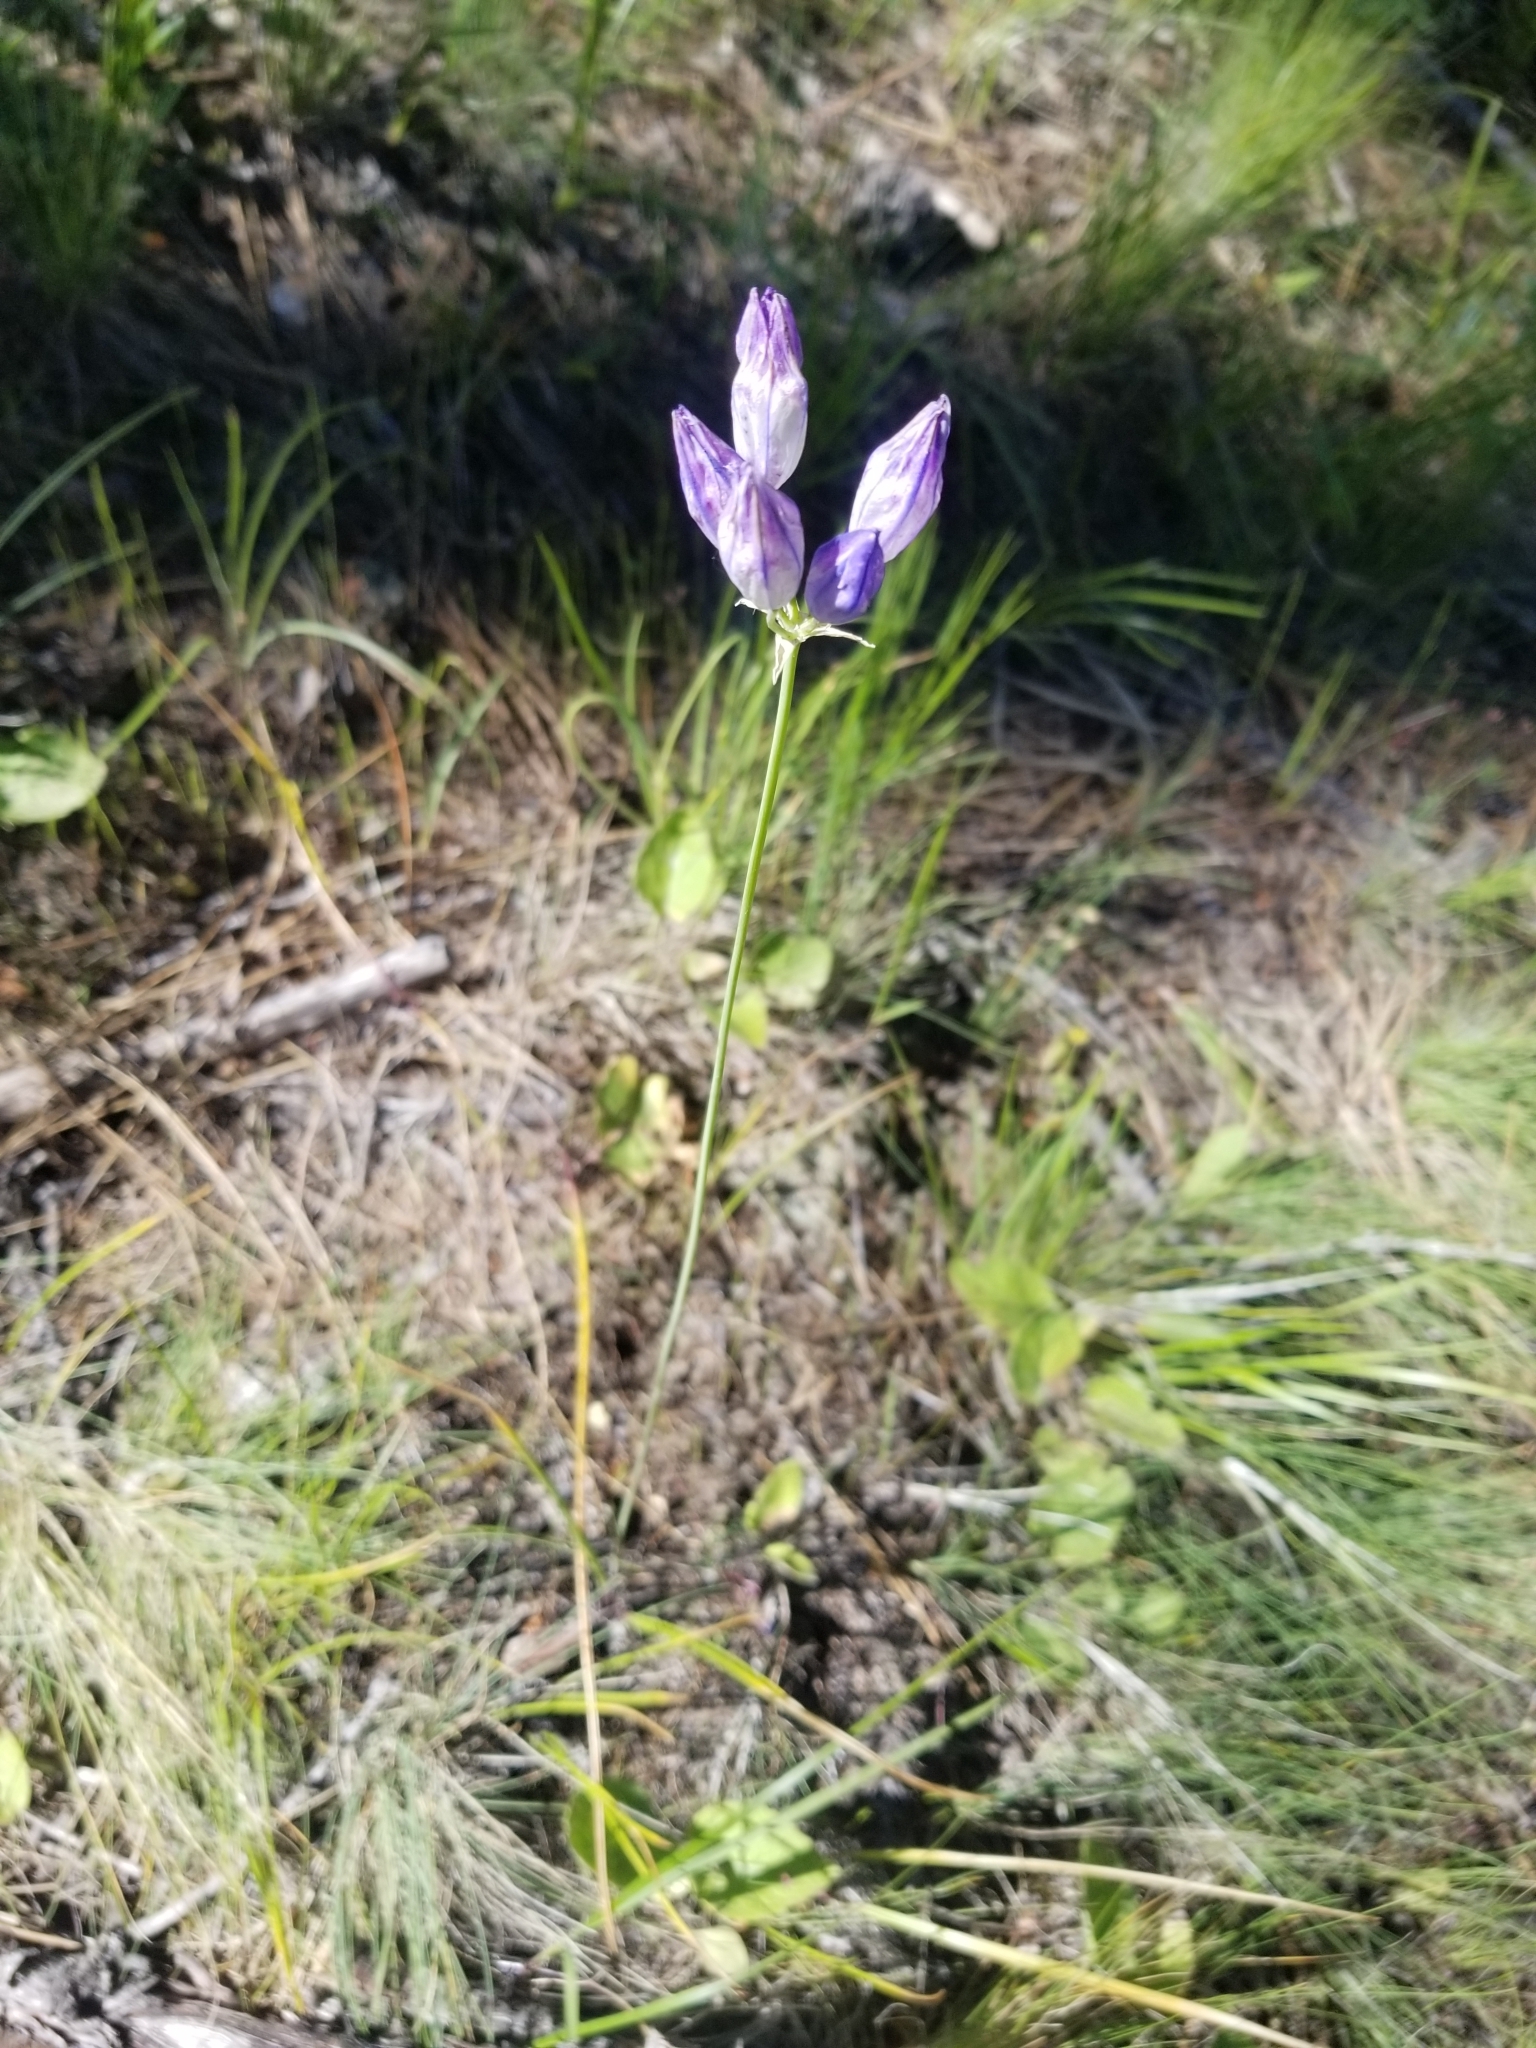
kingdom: Plantae
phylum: Tracheophyta
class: Liliopsida
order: Asparagales
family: Asparagaceae
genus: Triteleia
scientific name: Triteleia grandiflora
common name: Wild hyacinth
